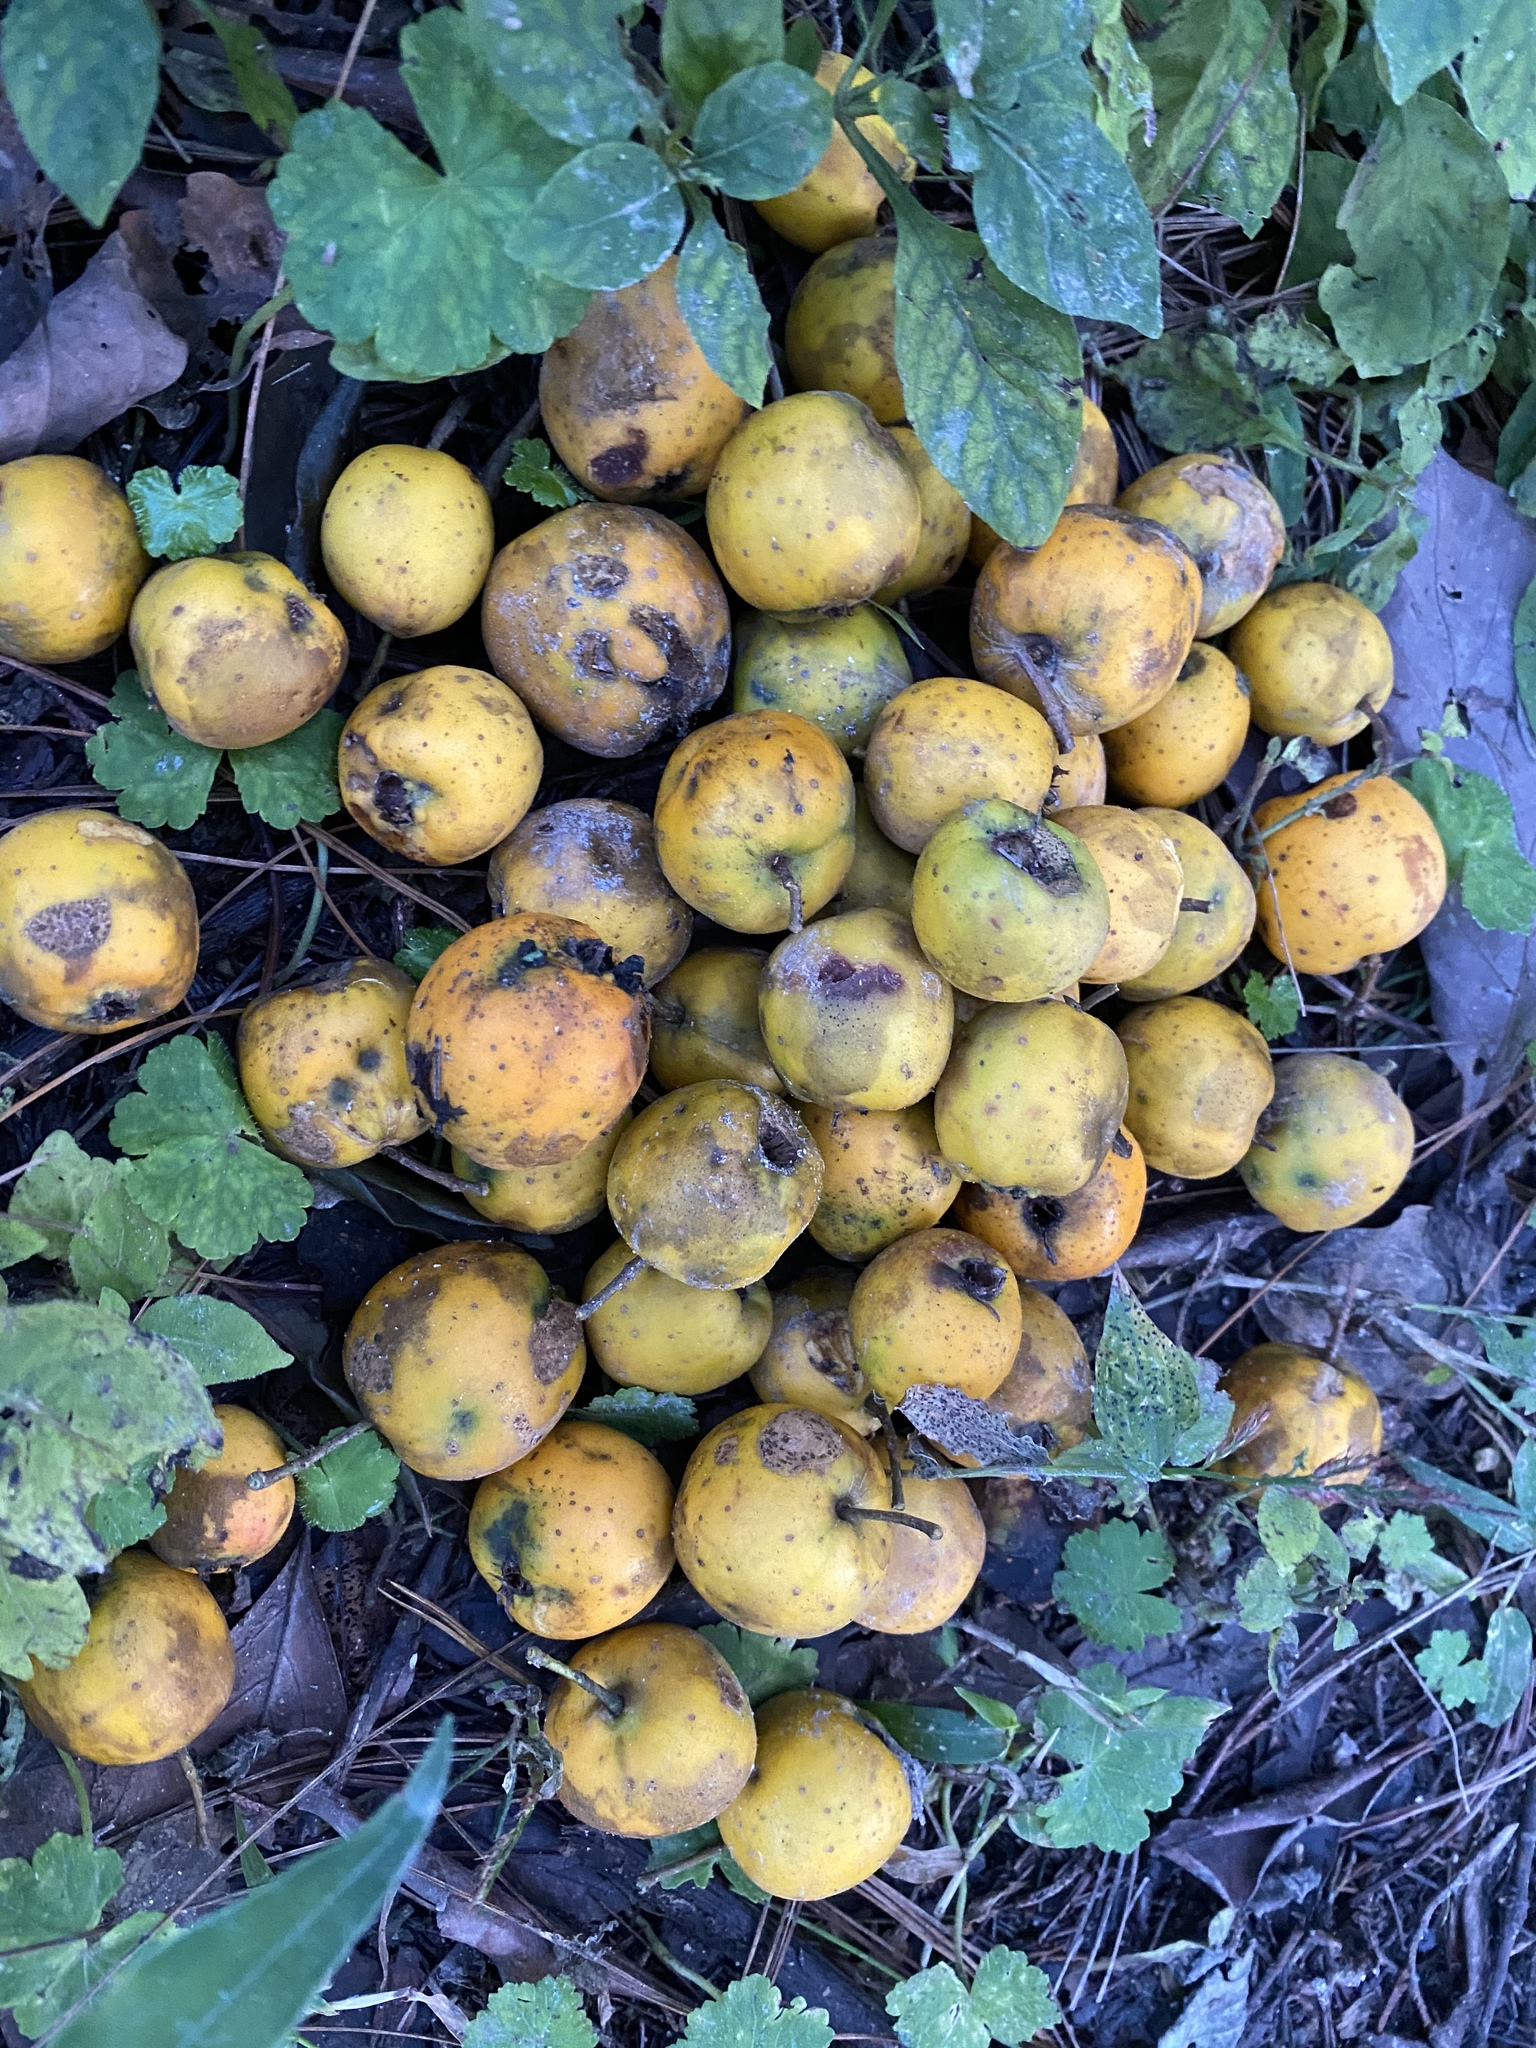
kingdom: Plantae
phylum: Tracheophyta
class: Magnoliopsida
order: Rosales
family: Rosaceae
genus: Crataegus
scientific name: Crataegus mexicana
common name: Mexican hawthorn
